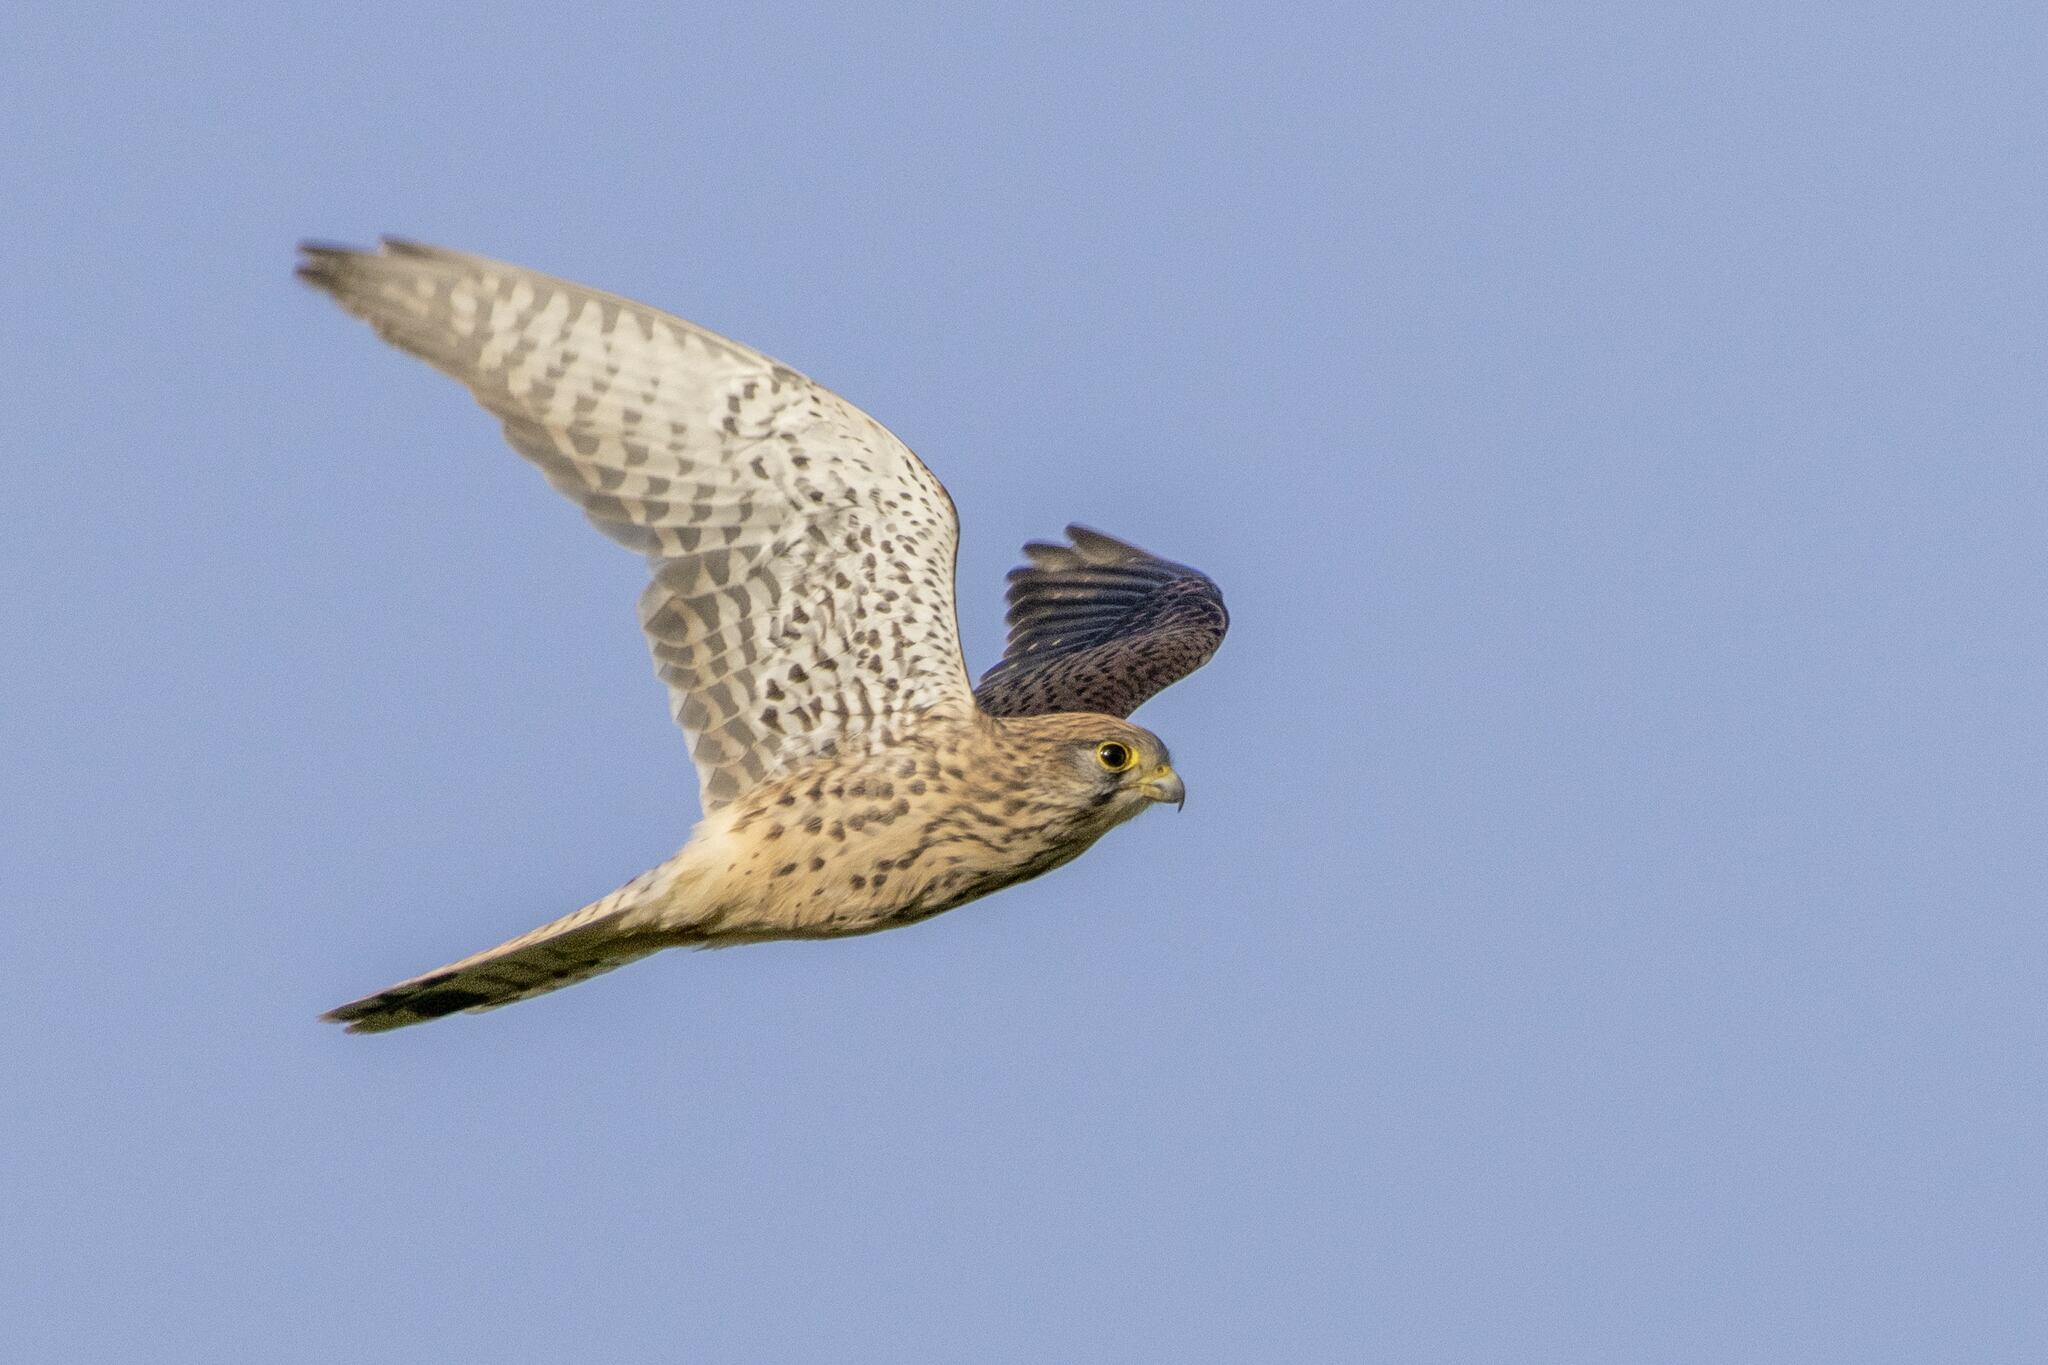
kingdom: Animalia
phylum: Chordata
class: Aves
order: Falconiformes
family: Falconidae
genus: Falco
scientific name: Falco tinnunculus
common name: Common kestrel
